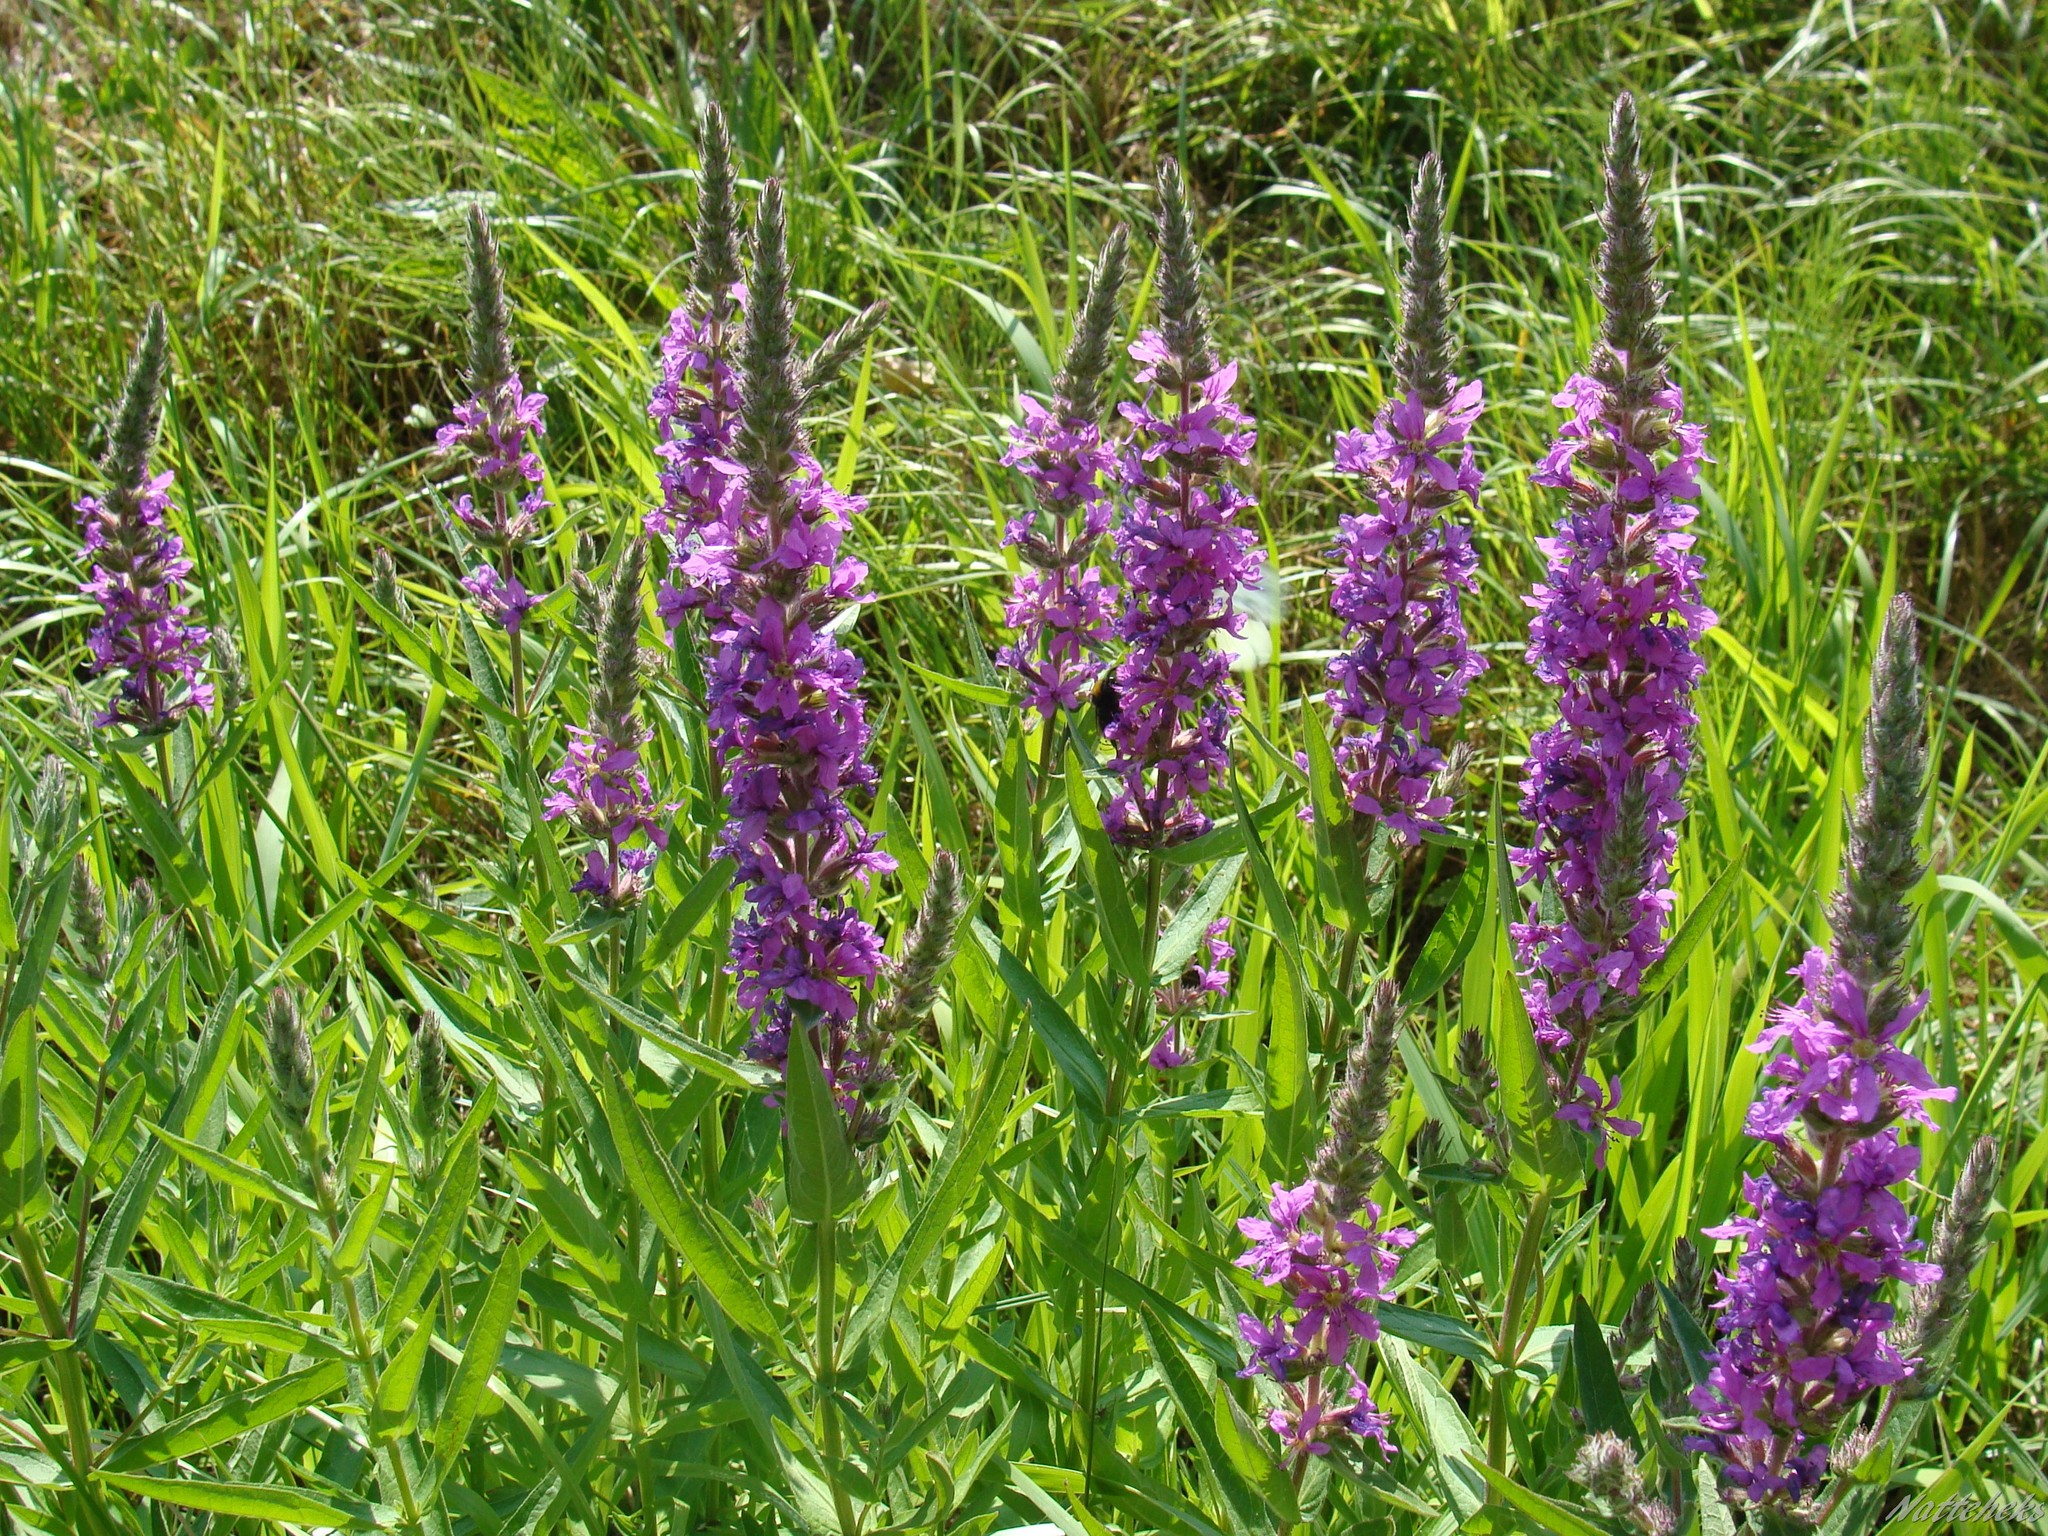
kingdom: Plantae
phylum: Tracheophyta
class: Magnoliopsida
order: Myrtales
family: Lythraceae
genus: Lythrum
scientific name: Lythrum salicaria
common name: Purple loosestrife
